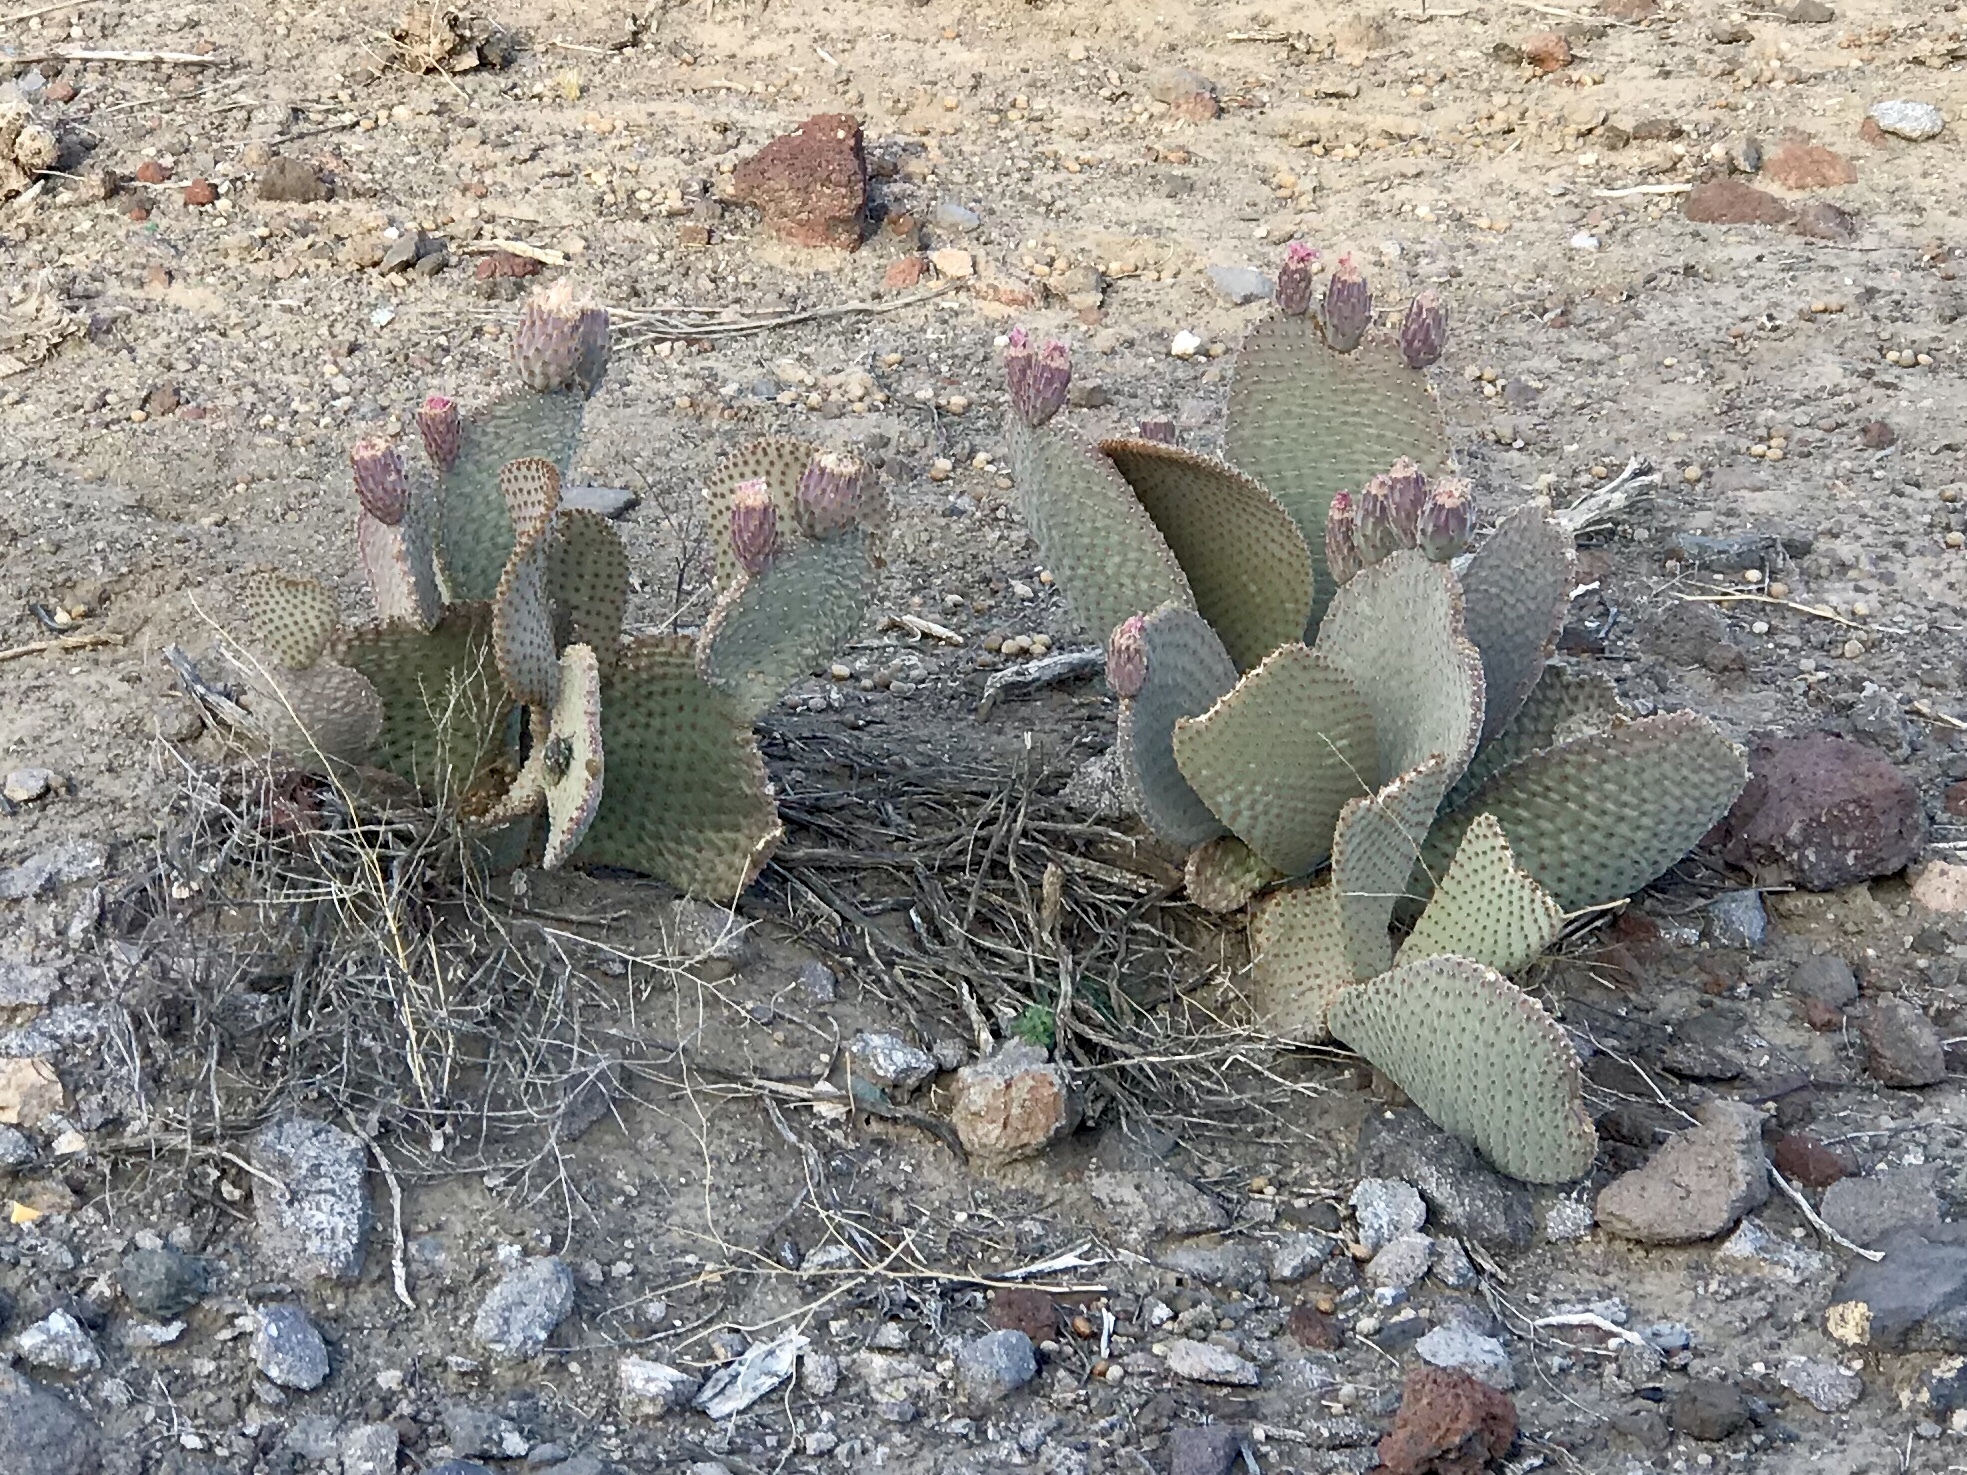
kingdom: Plantae
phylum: Tracheophyta
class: Magnoliopsida
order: Caryophyllales
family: Cactaceae
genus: Opuntia
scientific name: Opuntia basilaris
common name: Beavertail prickly-pear
